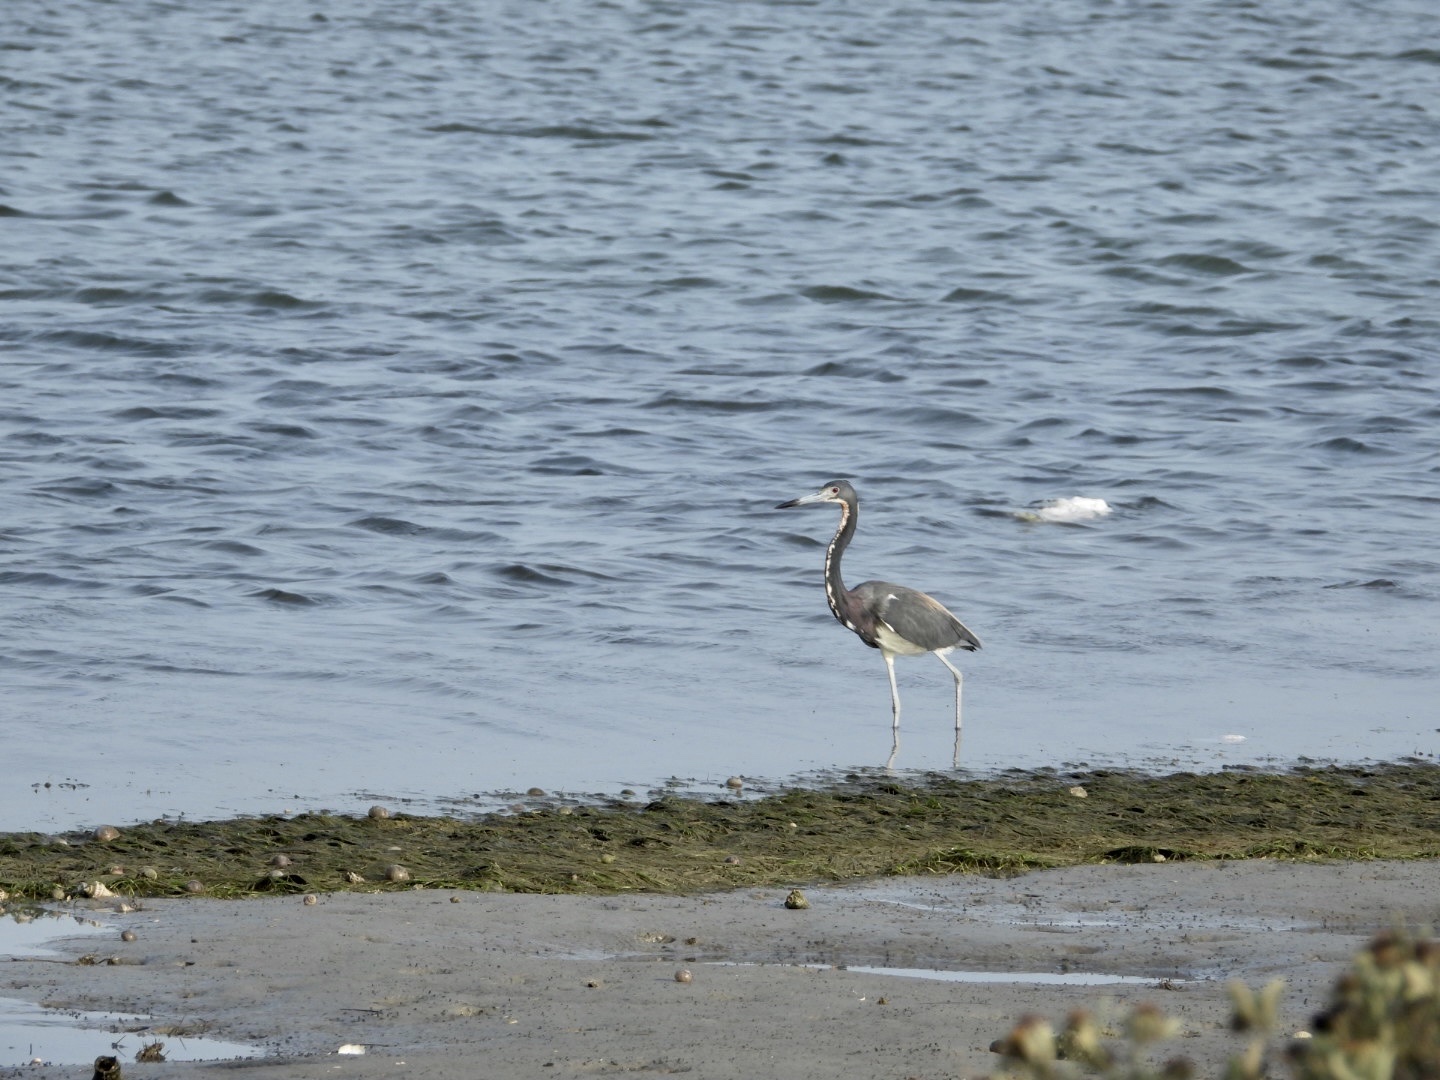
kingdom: Animalia
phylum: Chordata
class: Aves
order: Pelecaniformes
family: Ardeidae
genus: Egretta
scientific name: Egretta tricolor
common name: Tricolored heron
